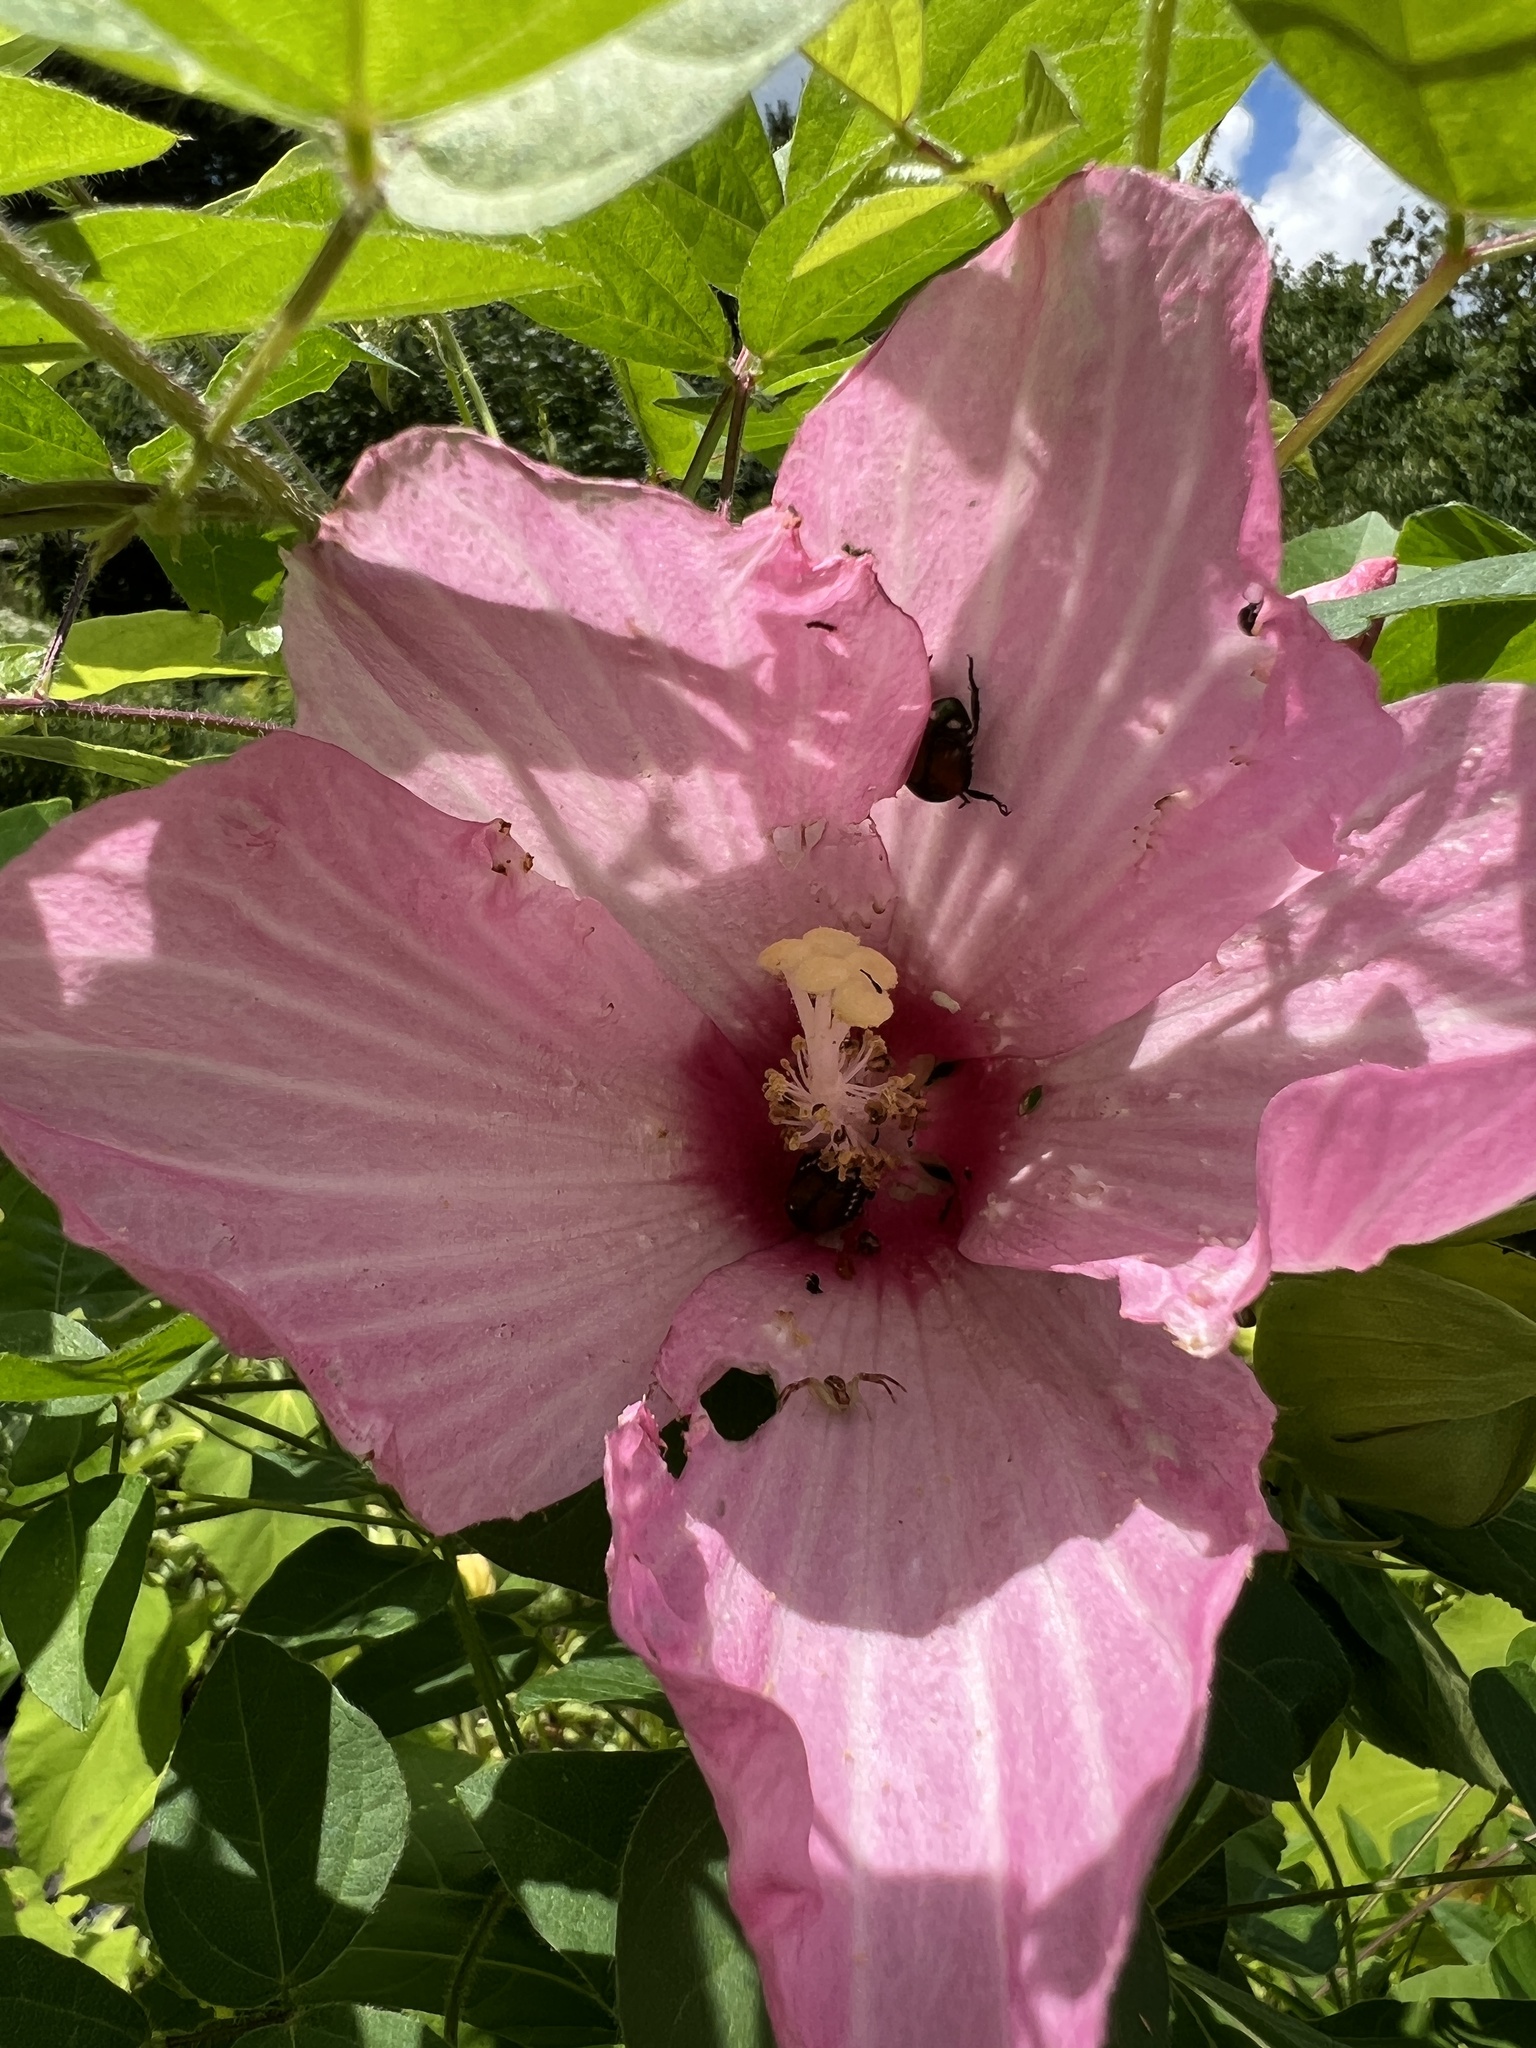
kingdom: Plantae
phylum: Tracheophyta
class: Magnoliopsida
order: Malvales
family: Malvaceae
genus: Hibiscus
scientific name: Hibiscus moscheutos
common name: Common rose-mallow
